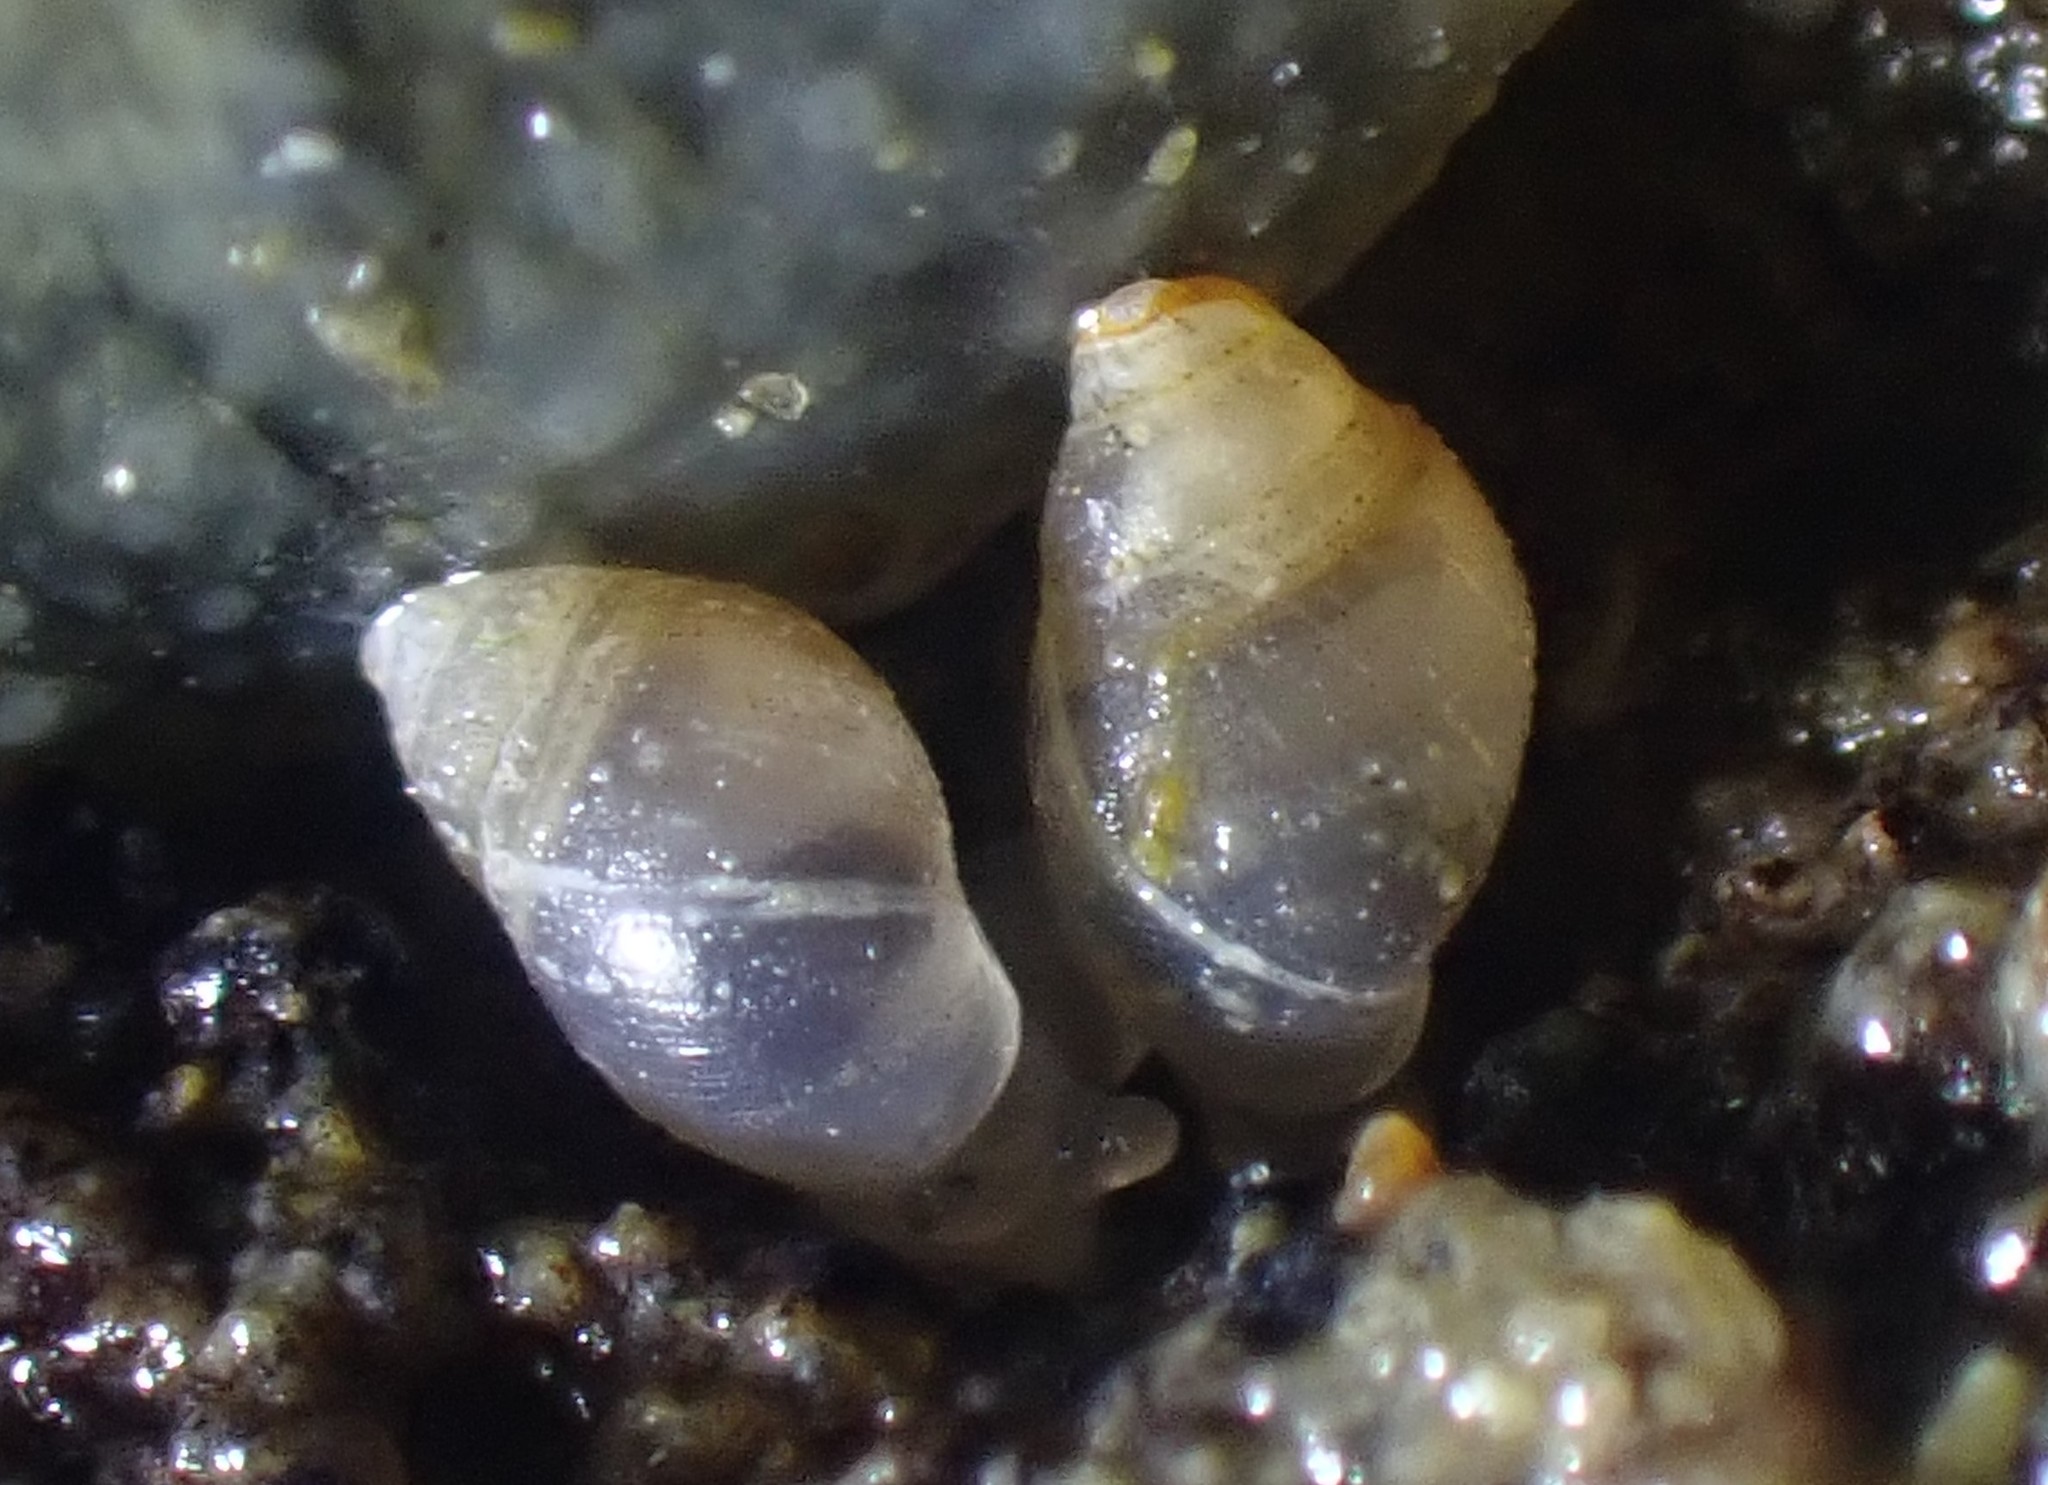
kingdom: Animalia
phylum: Mollusca
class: Gastropoda
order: Ellobiida
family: Ellobiidae
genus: Leuconopsis
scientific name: Leuconopsis obsoleta
